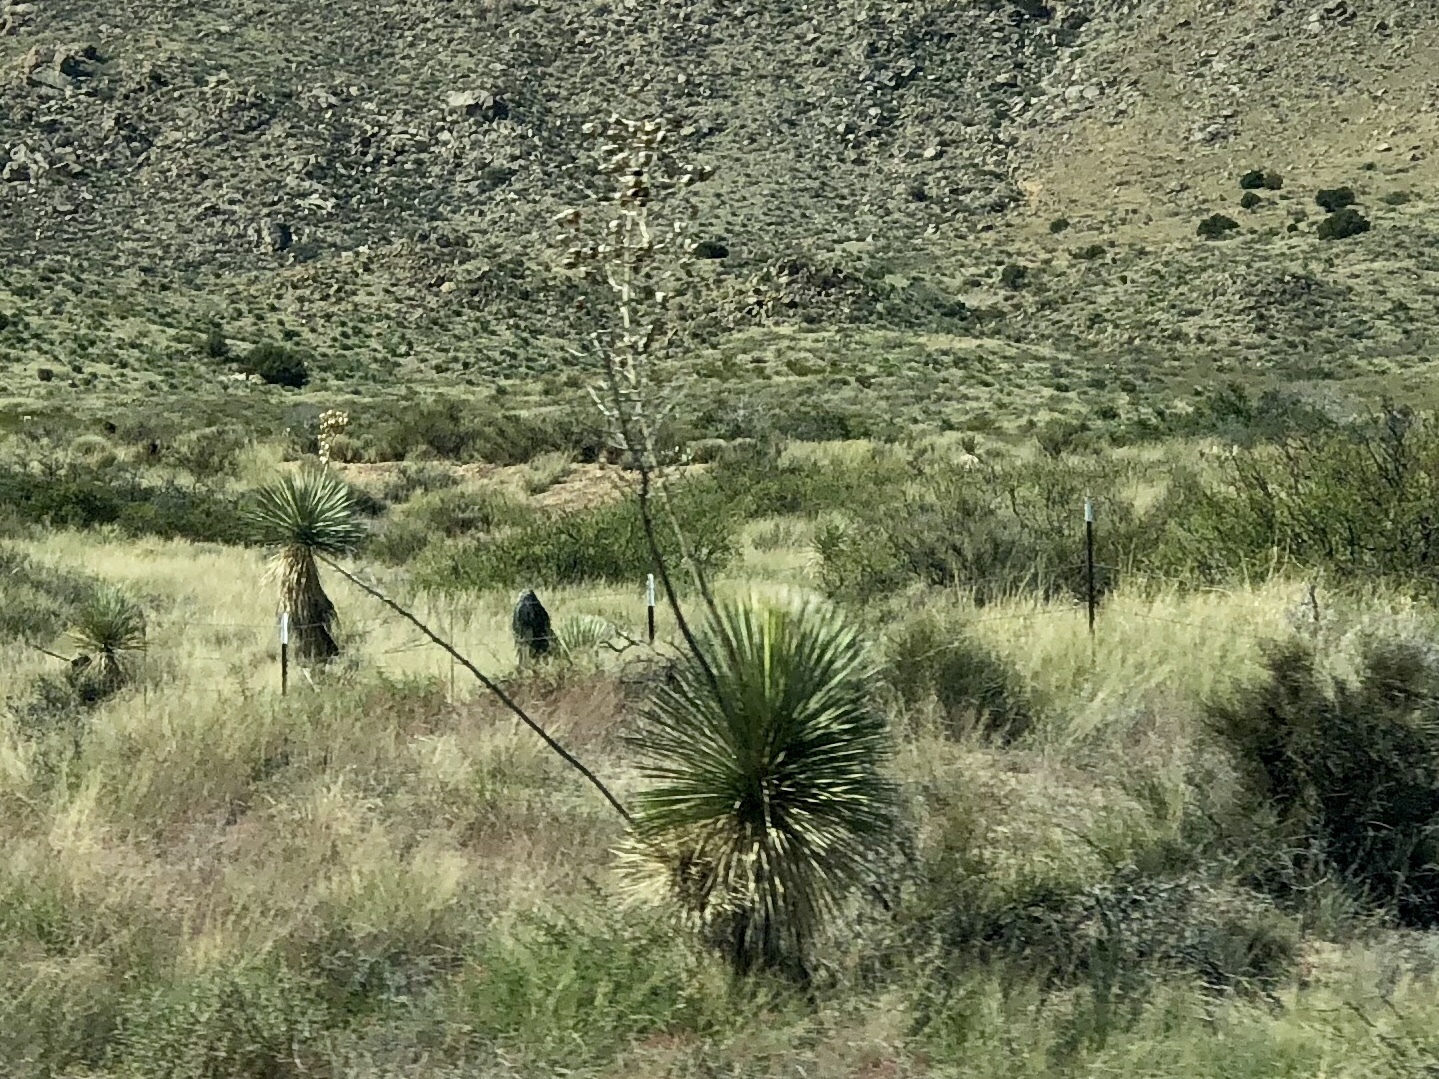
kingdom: Plantae
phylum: Tracheophyta
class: Liliopsida
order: Asparagales
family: Asparagaceae
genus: Dasylirion
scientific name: Dasylirion wheeleri
